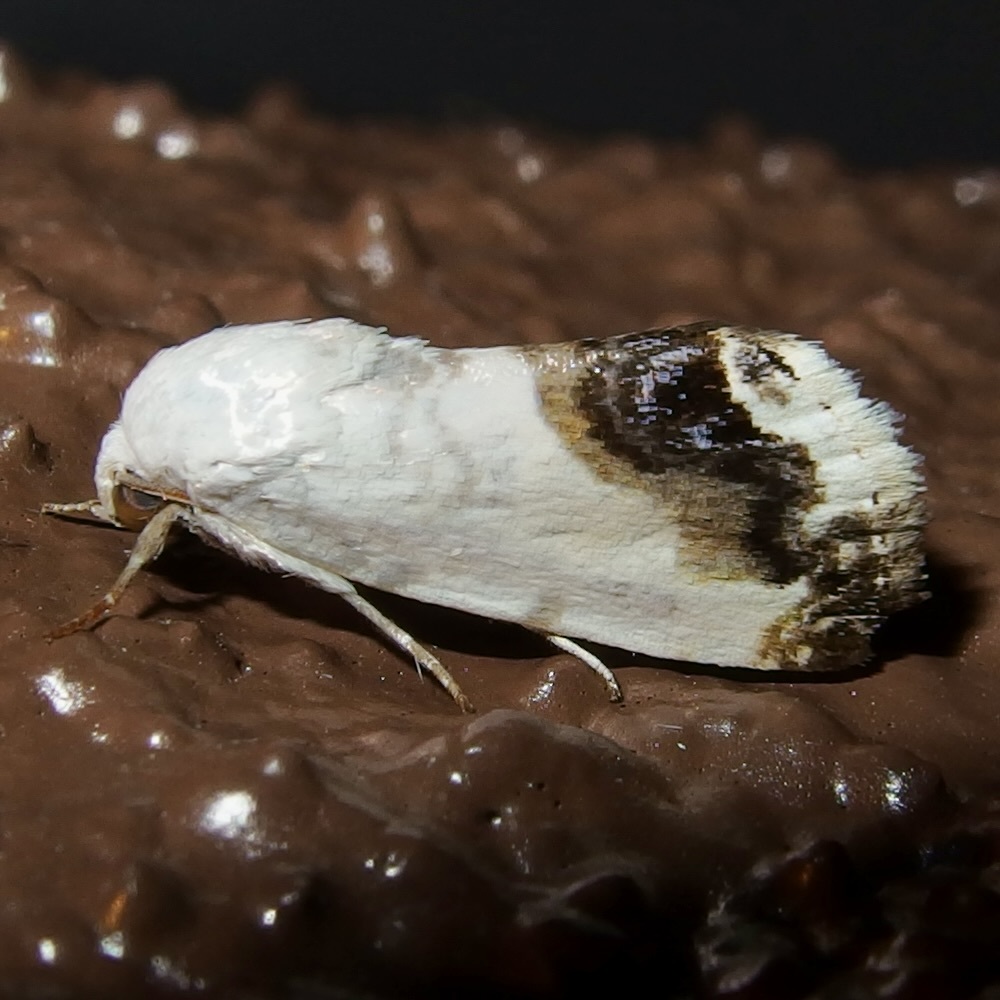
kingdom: Animalia
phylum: Arthropoda
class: Insecta
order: Lepidoptera
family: Noctuidae
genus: Acontia
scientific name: Acontia behrii
